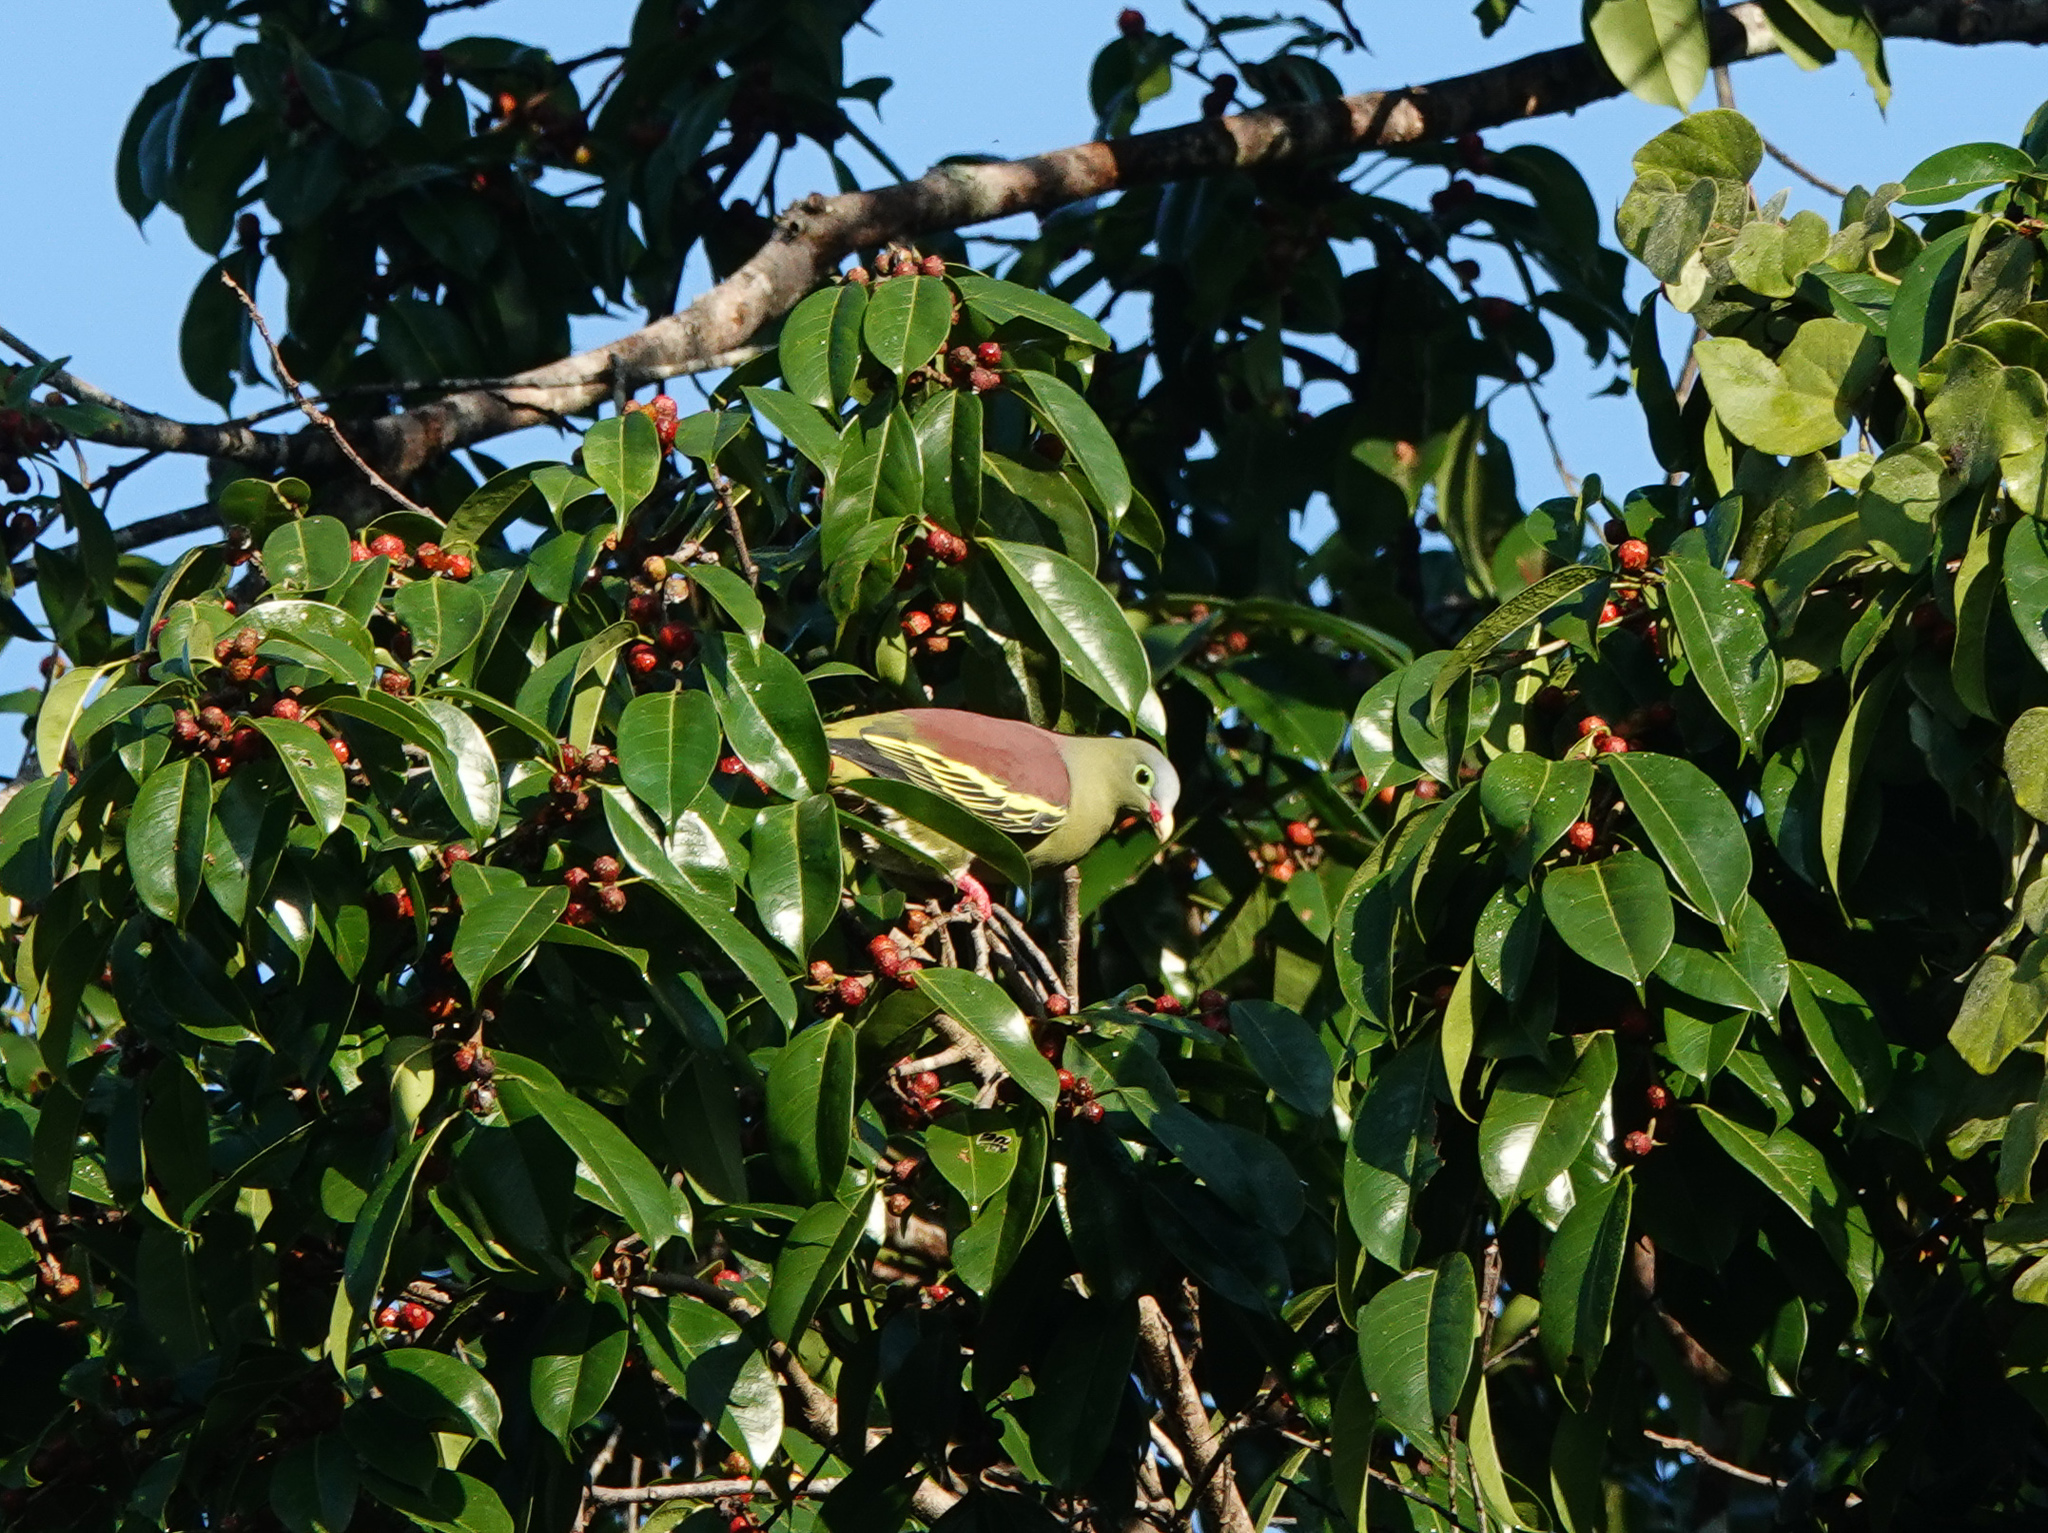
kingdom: Animalia
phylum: Chordata
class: Aves
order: Columbiformes
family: Columbidae
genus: Treron
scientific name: Treron curvirostra
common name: Thick-billed green pigeon
